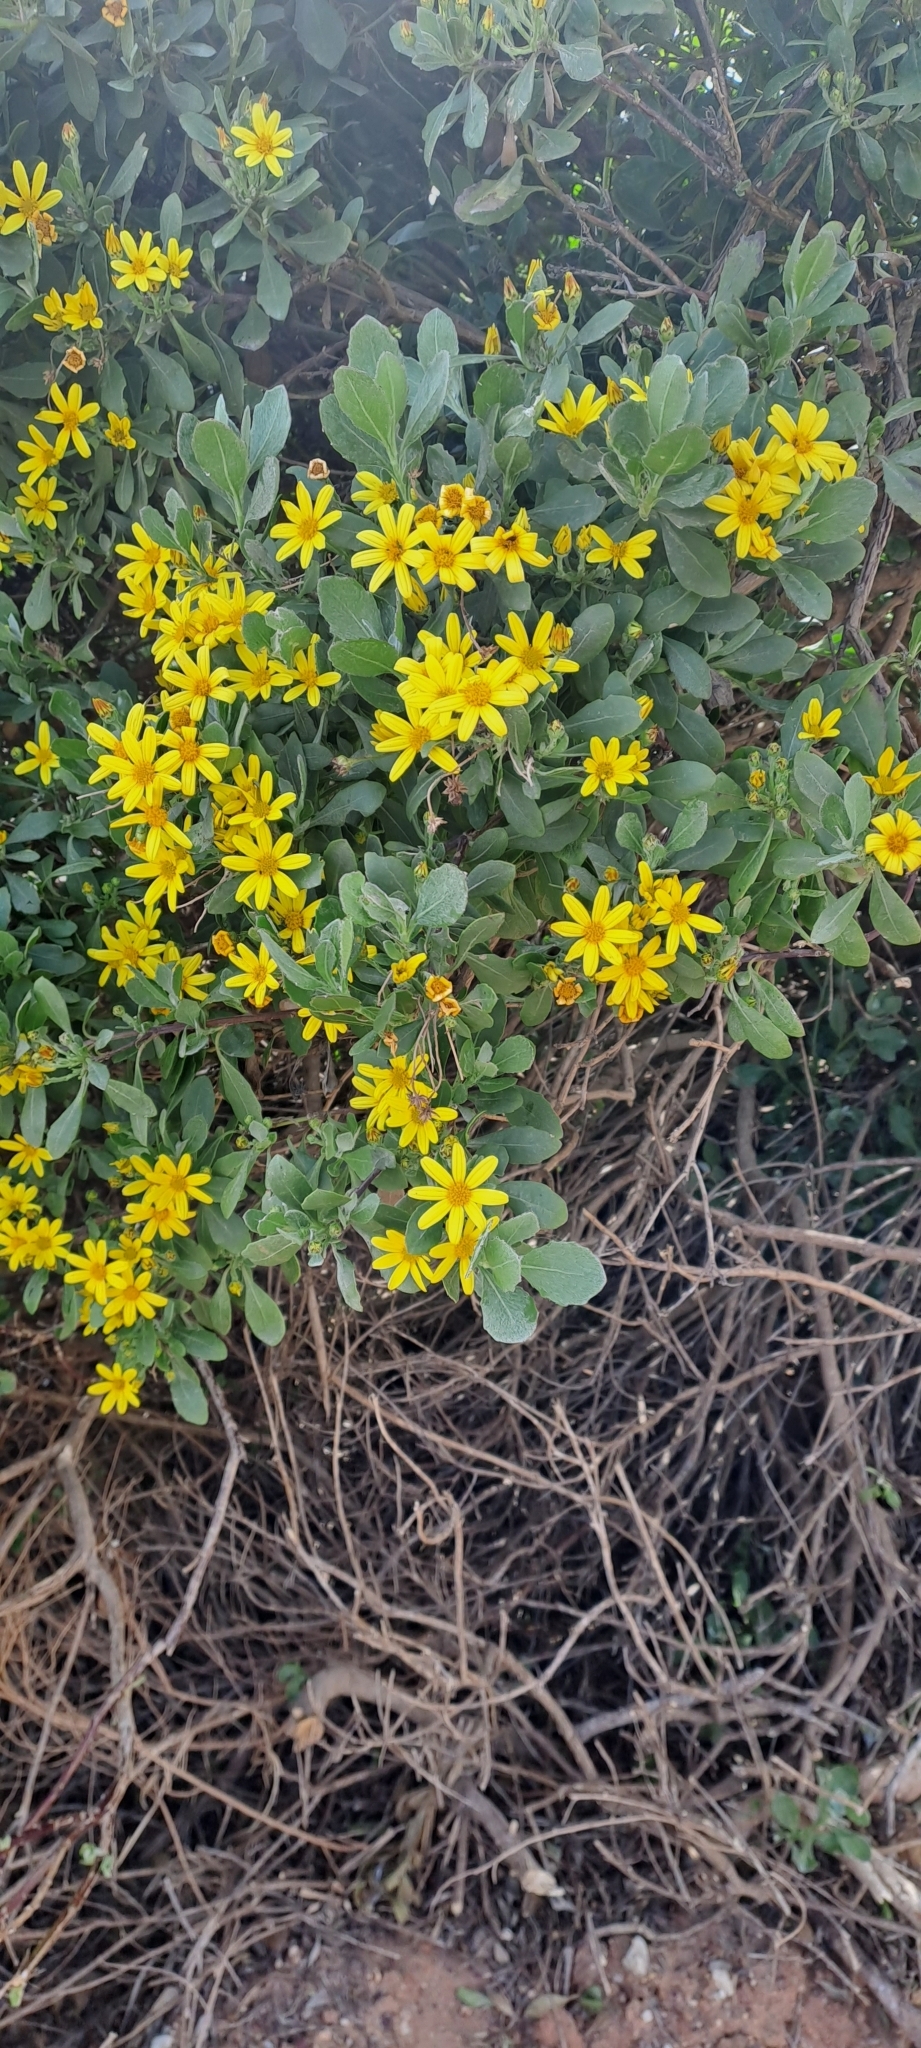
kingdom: Plantae
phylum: Tracheophyta
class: Magnoliopsida
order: Asterales
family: Asteraceae
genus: Osteospermum
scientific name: Osteospermum moniliferum
